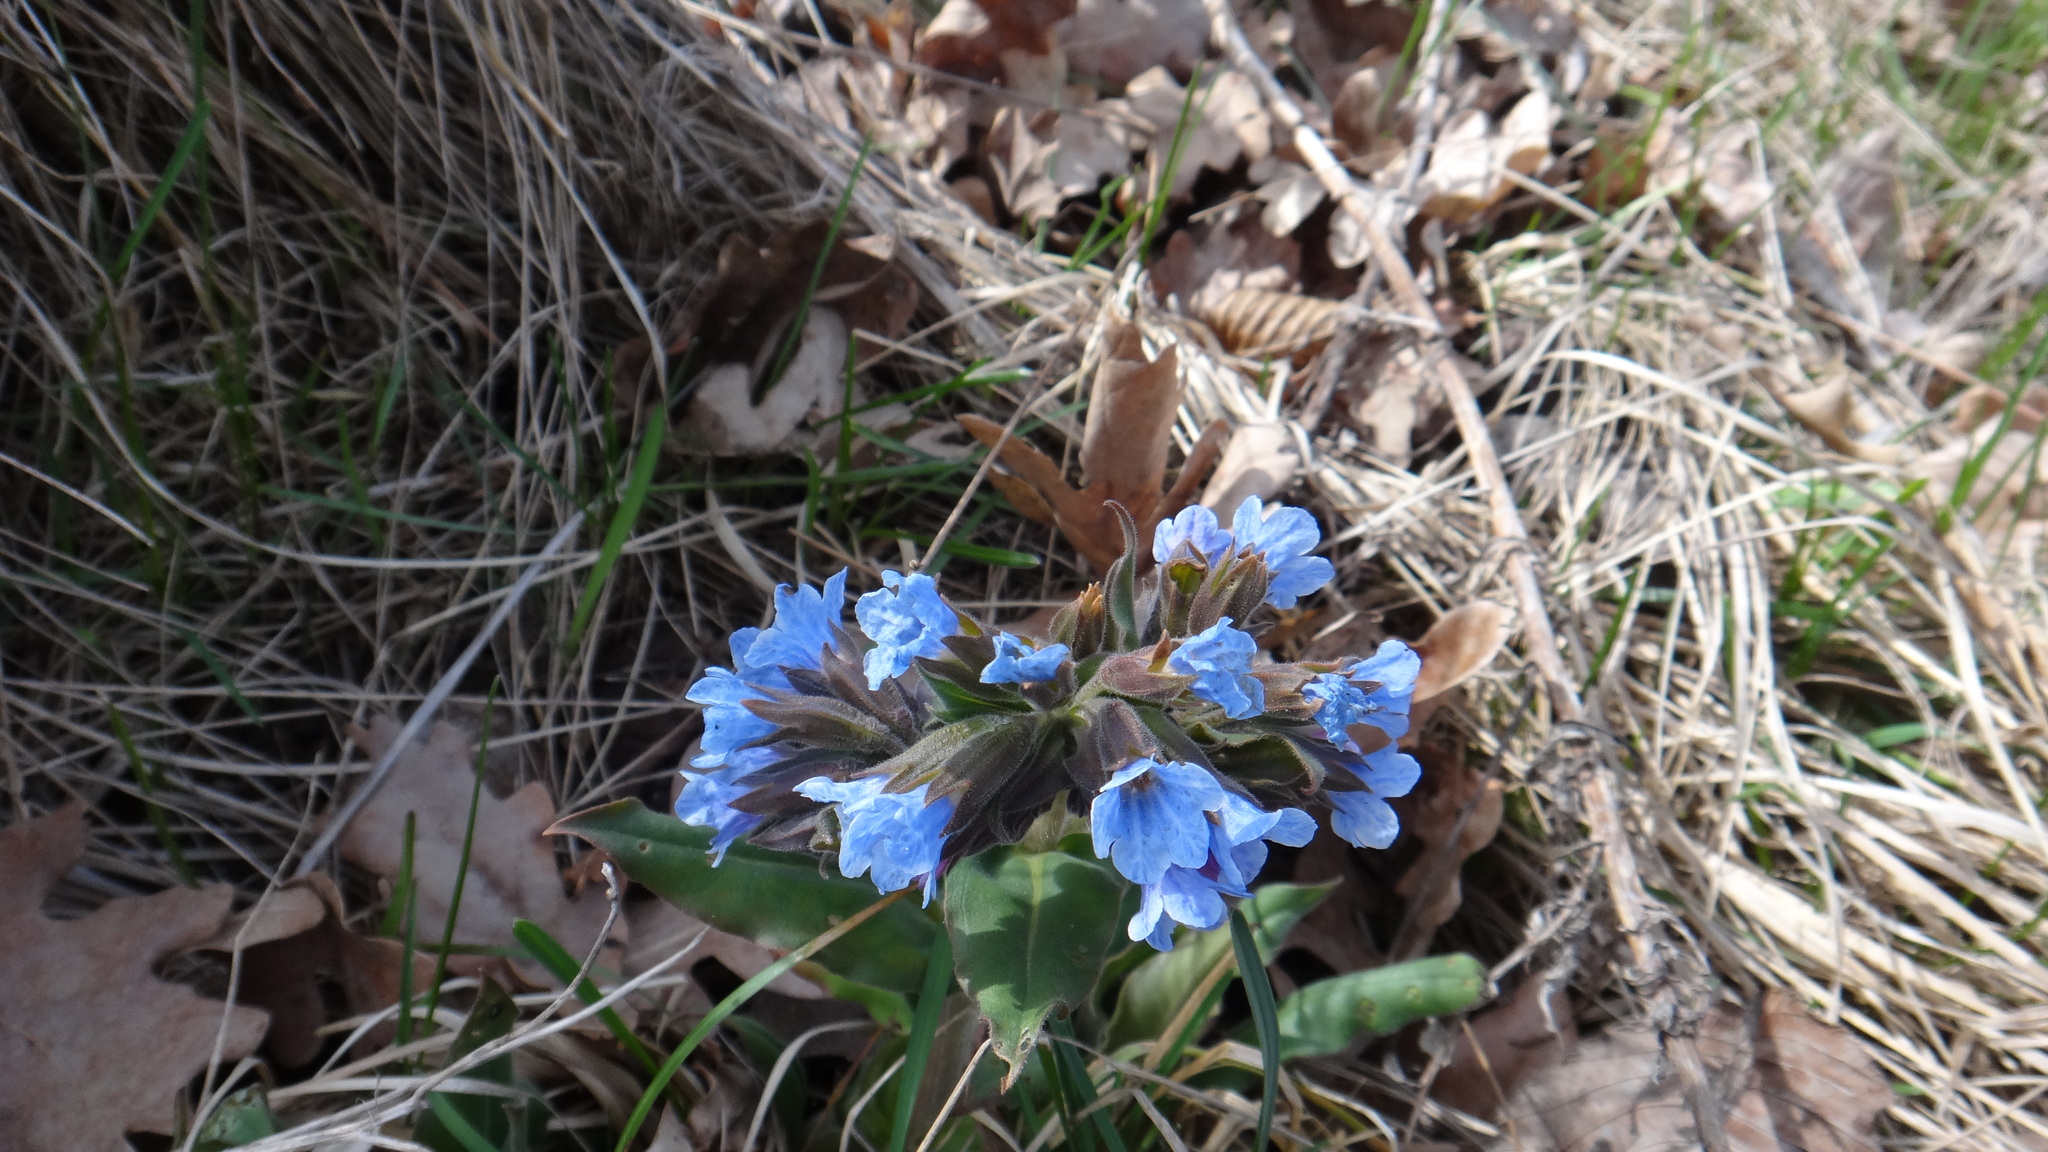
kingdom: Plantae
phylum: Tracheophyta
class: Magnoliopsida
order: Boraginales
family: Boraginaceae
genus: Pulmonaria
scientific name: Pulmonaria mollis
